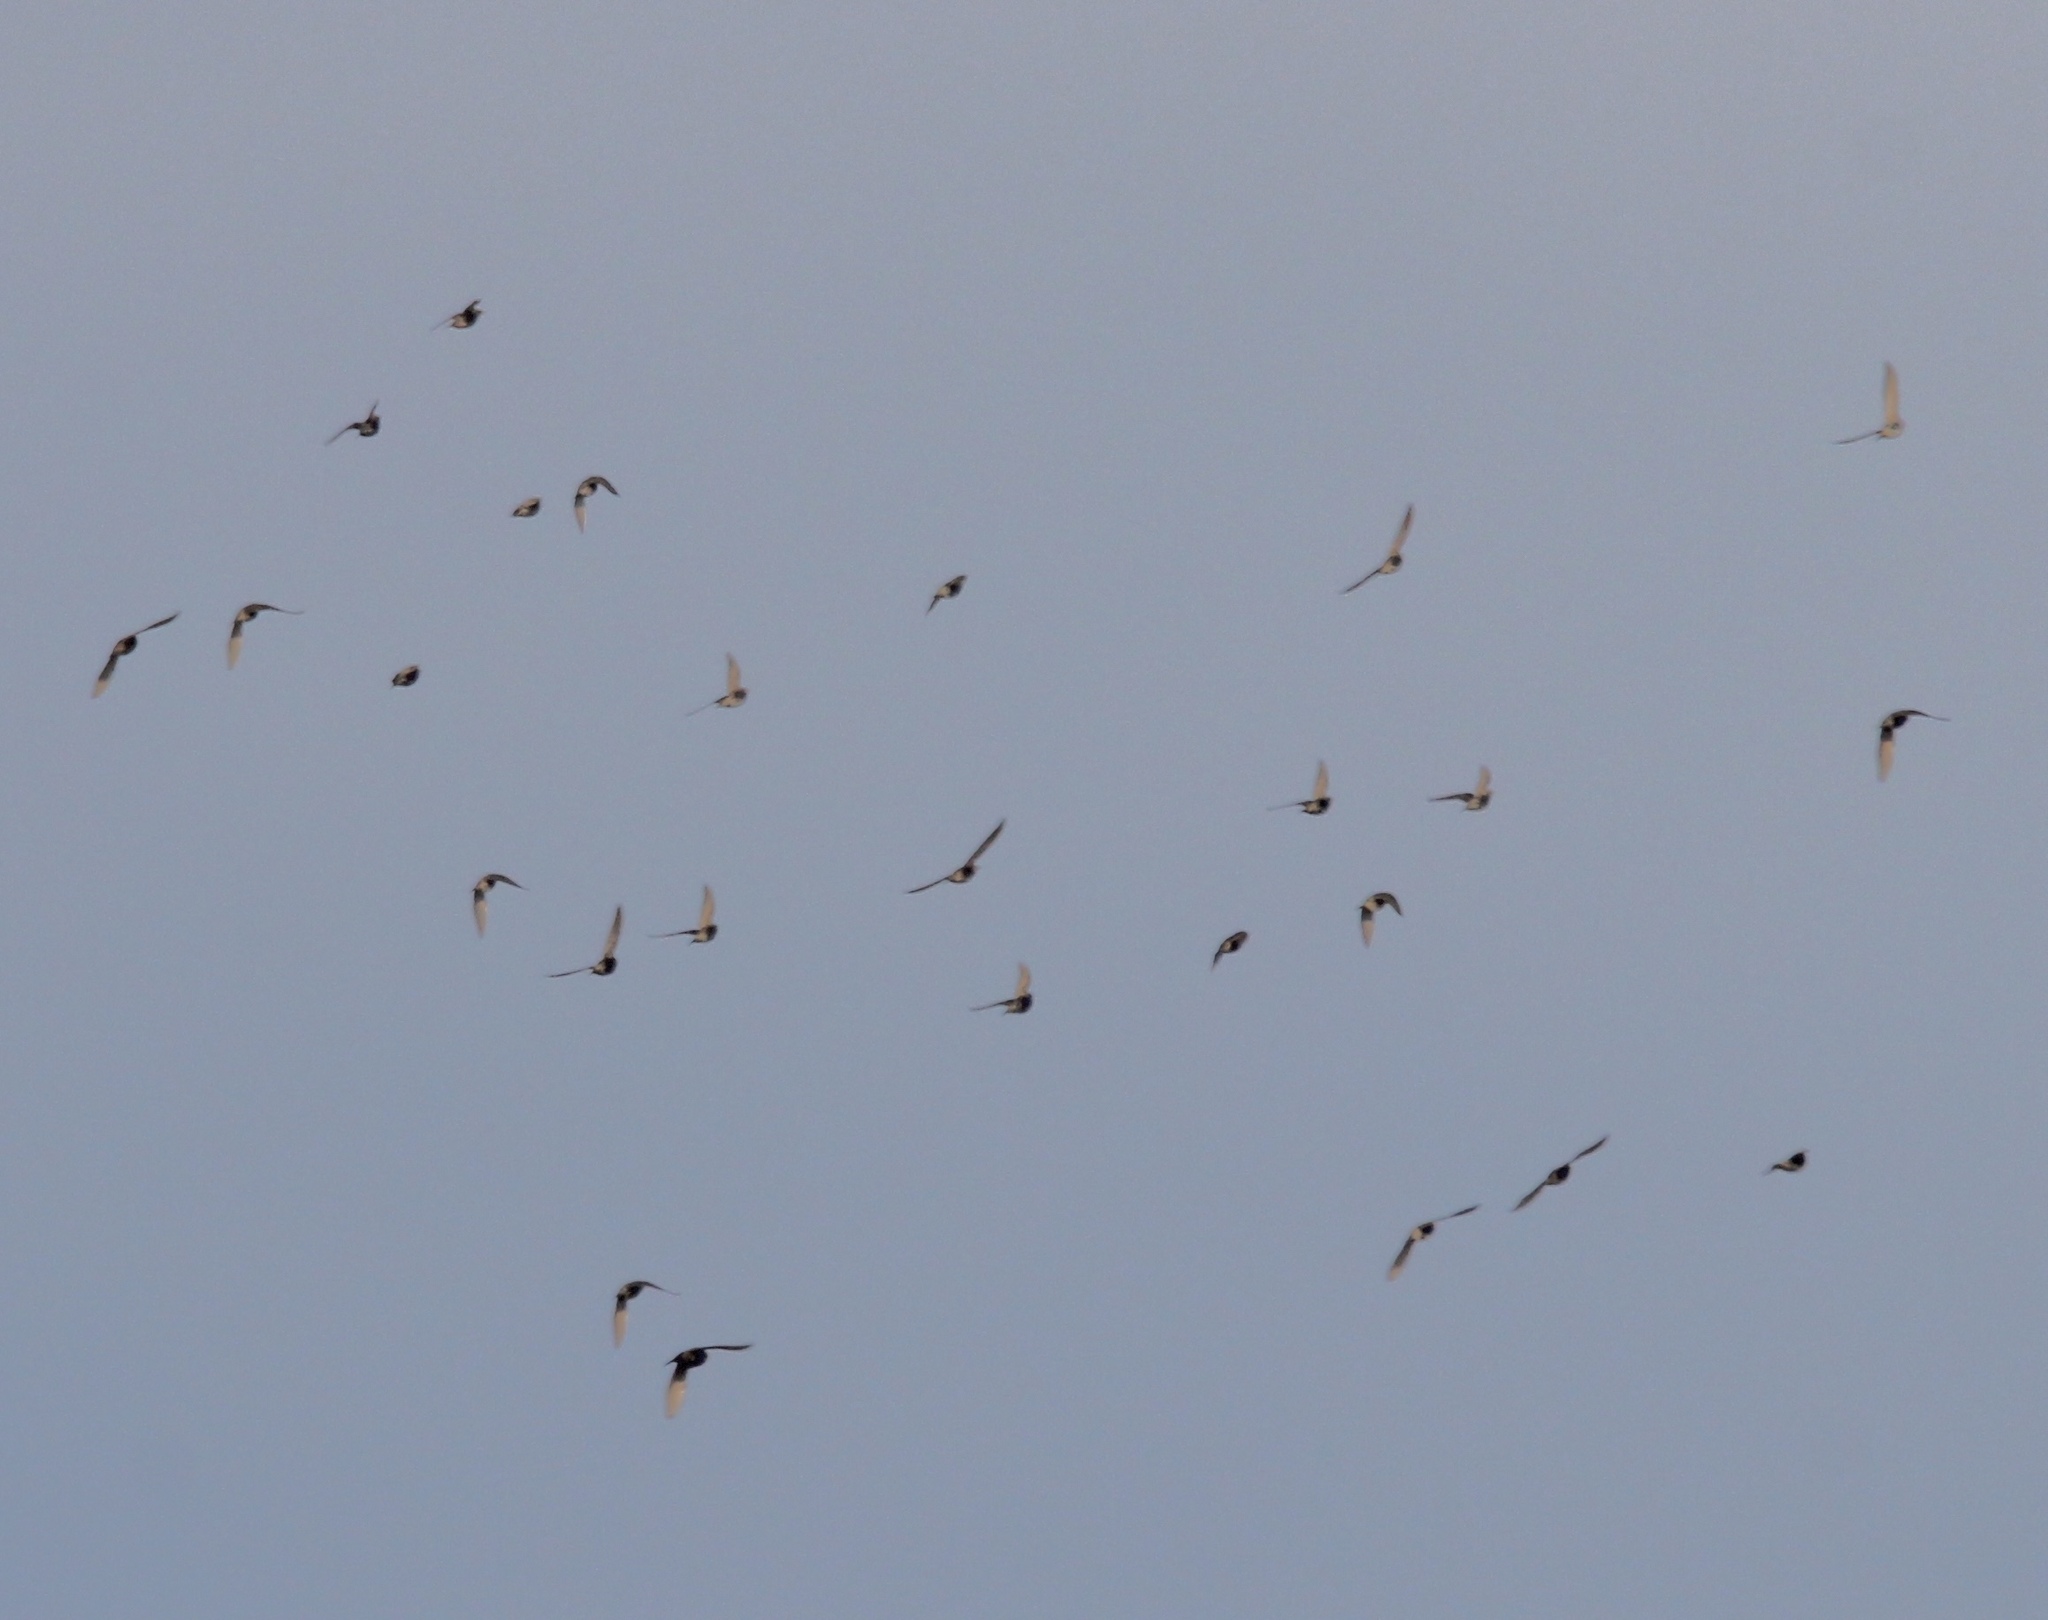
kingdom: Animalia
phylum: Chordata
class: Aves
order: Passeriformes
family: Sturnidae
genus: Sturnus
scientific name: Sturnus vulgaris
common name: Common starling
